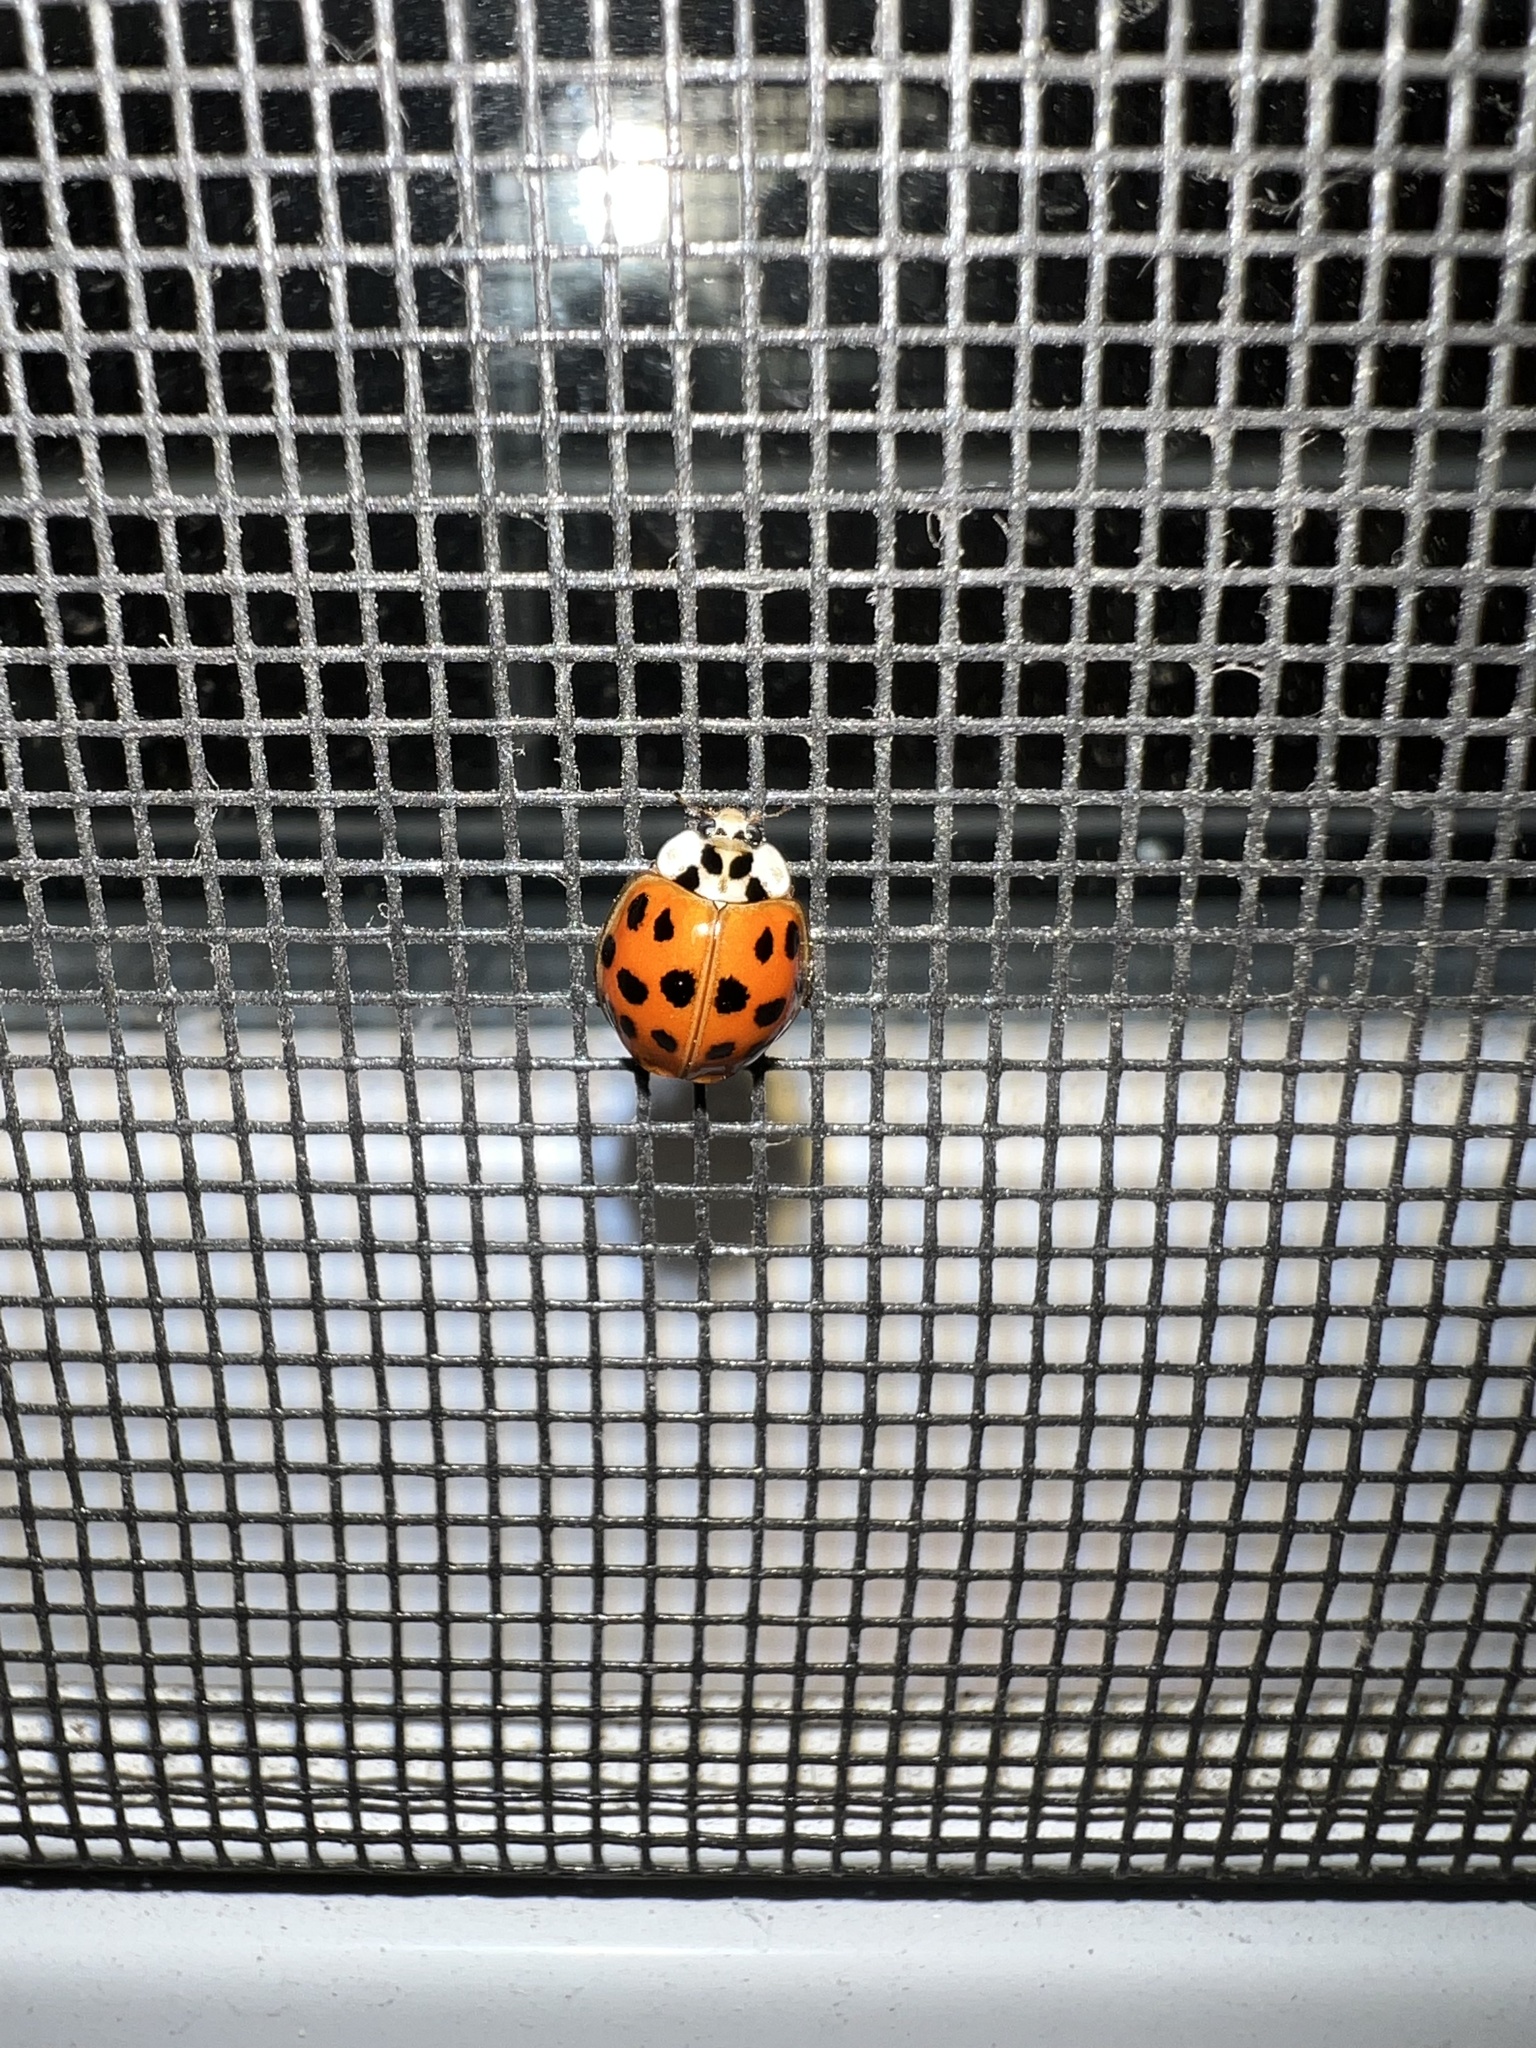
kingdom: Animalia
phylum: Arthropoda
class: Insecta
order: Coleoptera
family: Coccinellidae
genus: Harmonia
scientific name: Harmonia axyridis
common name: Harlequin ladybird
